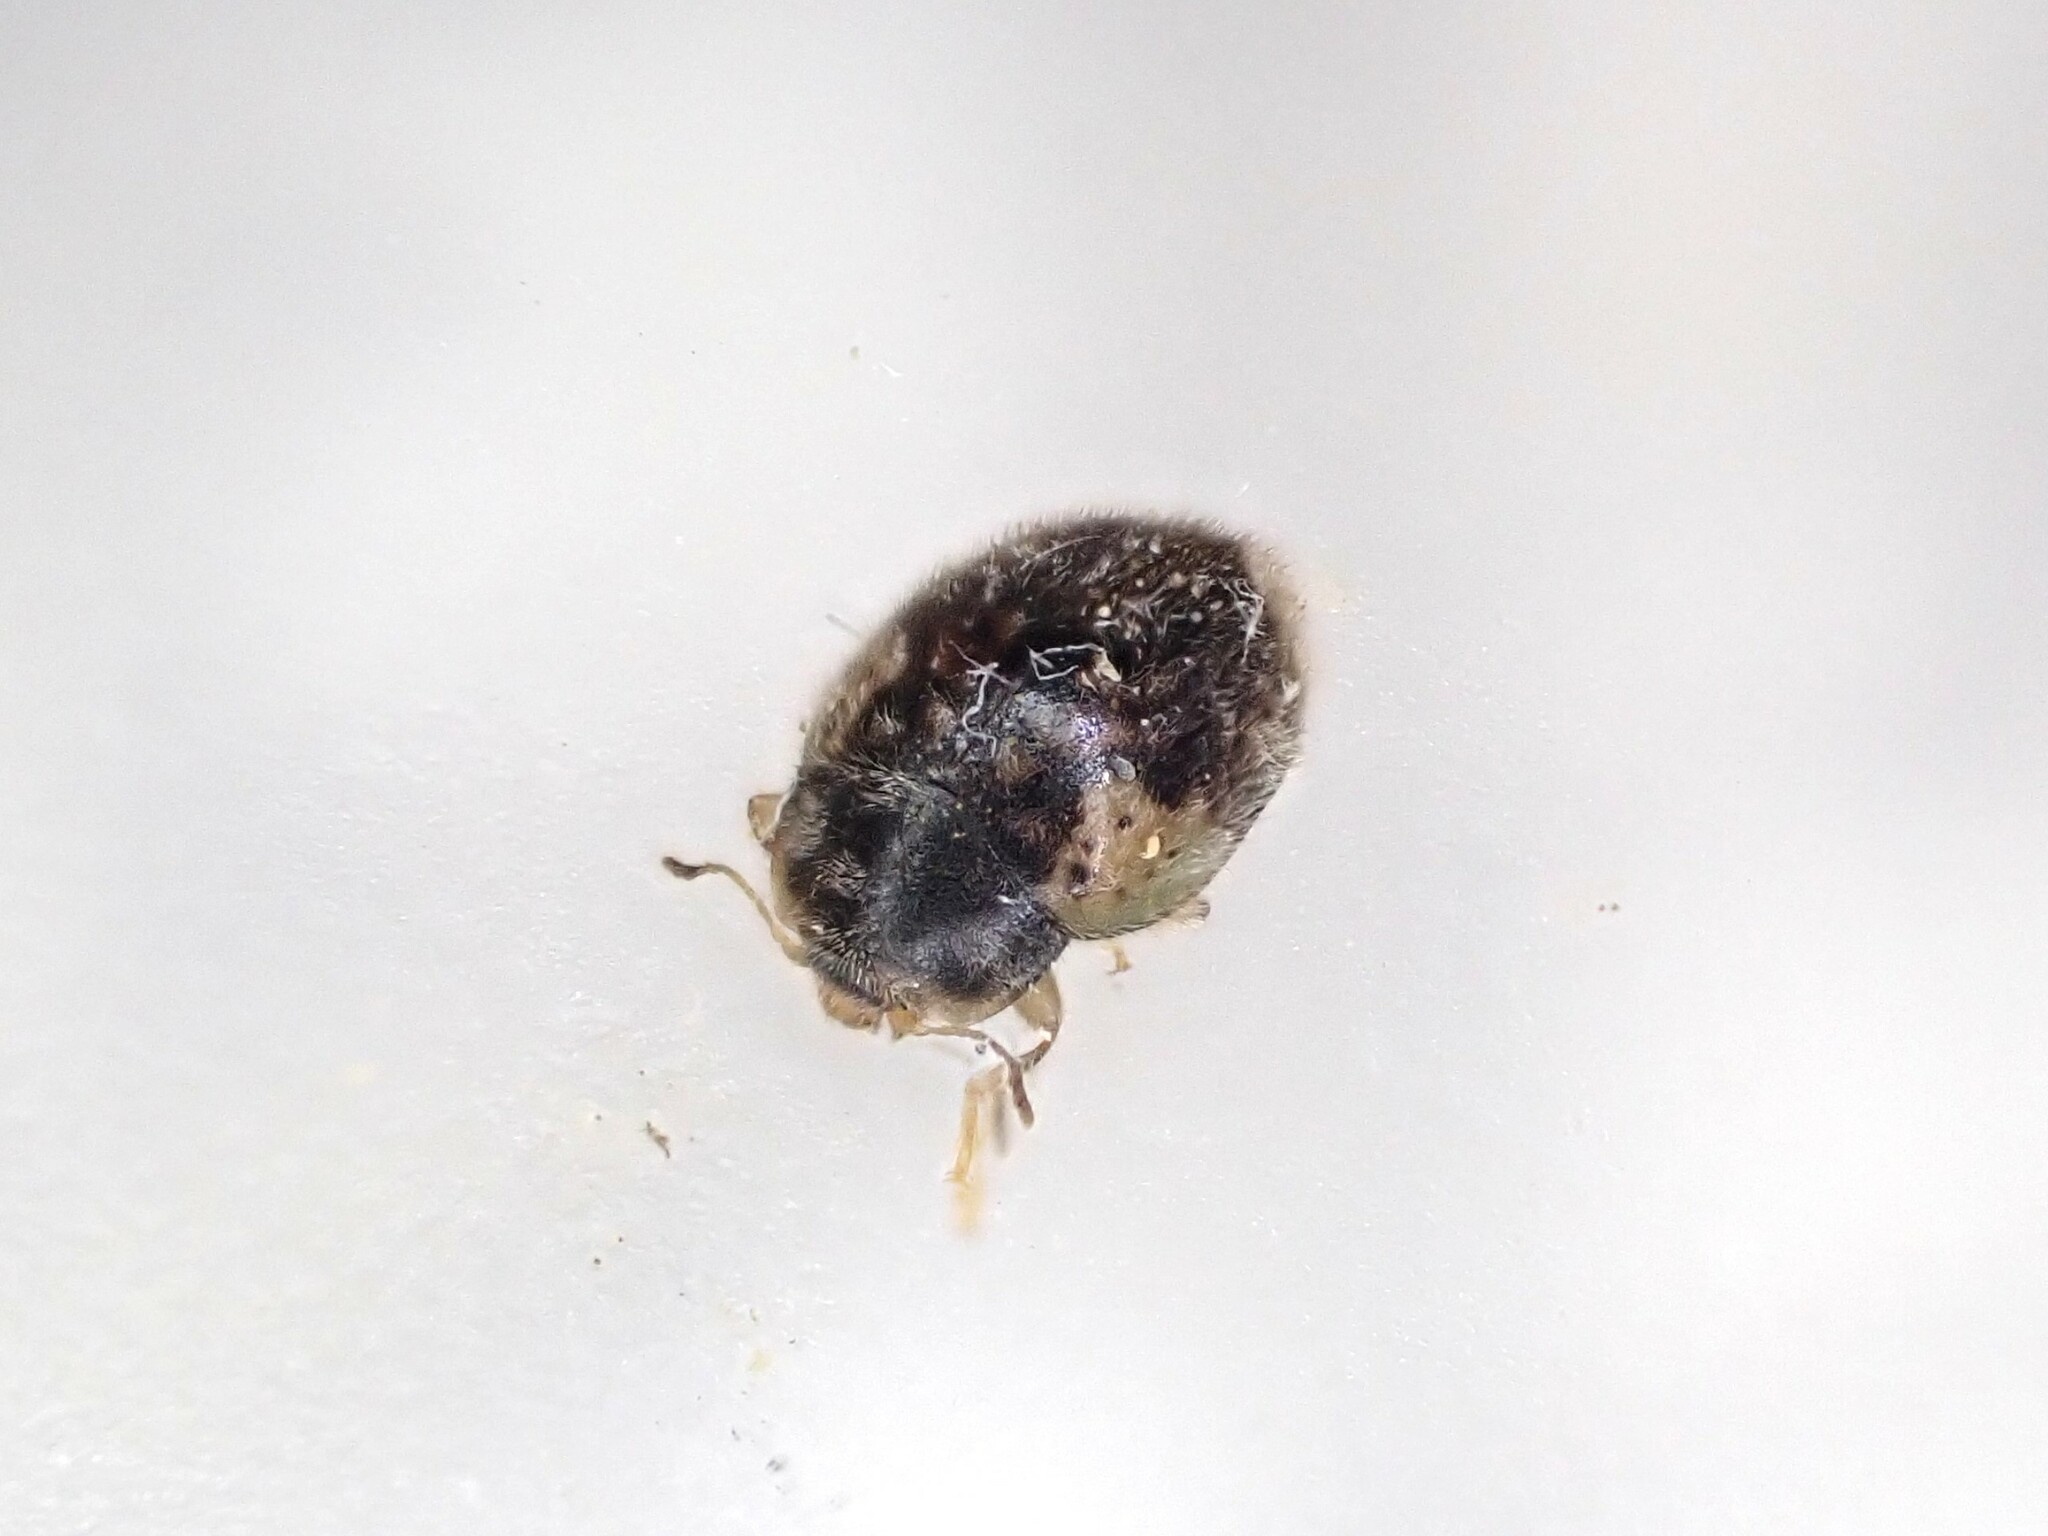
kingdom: Animalia
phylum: Arthropoda
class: Insecta
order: Coleoptera
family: Coccinellidae
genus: Rhyzobius
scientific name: Rhyzobius
